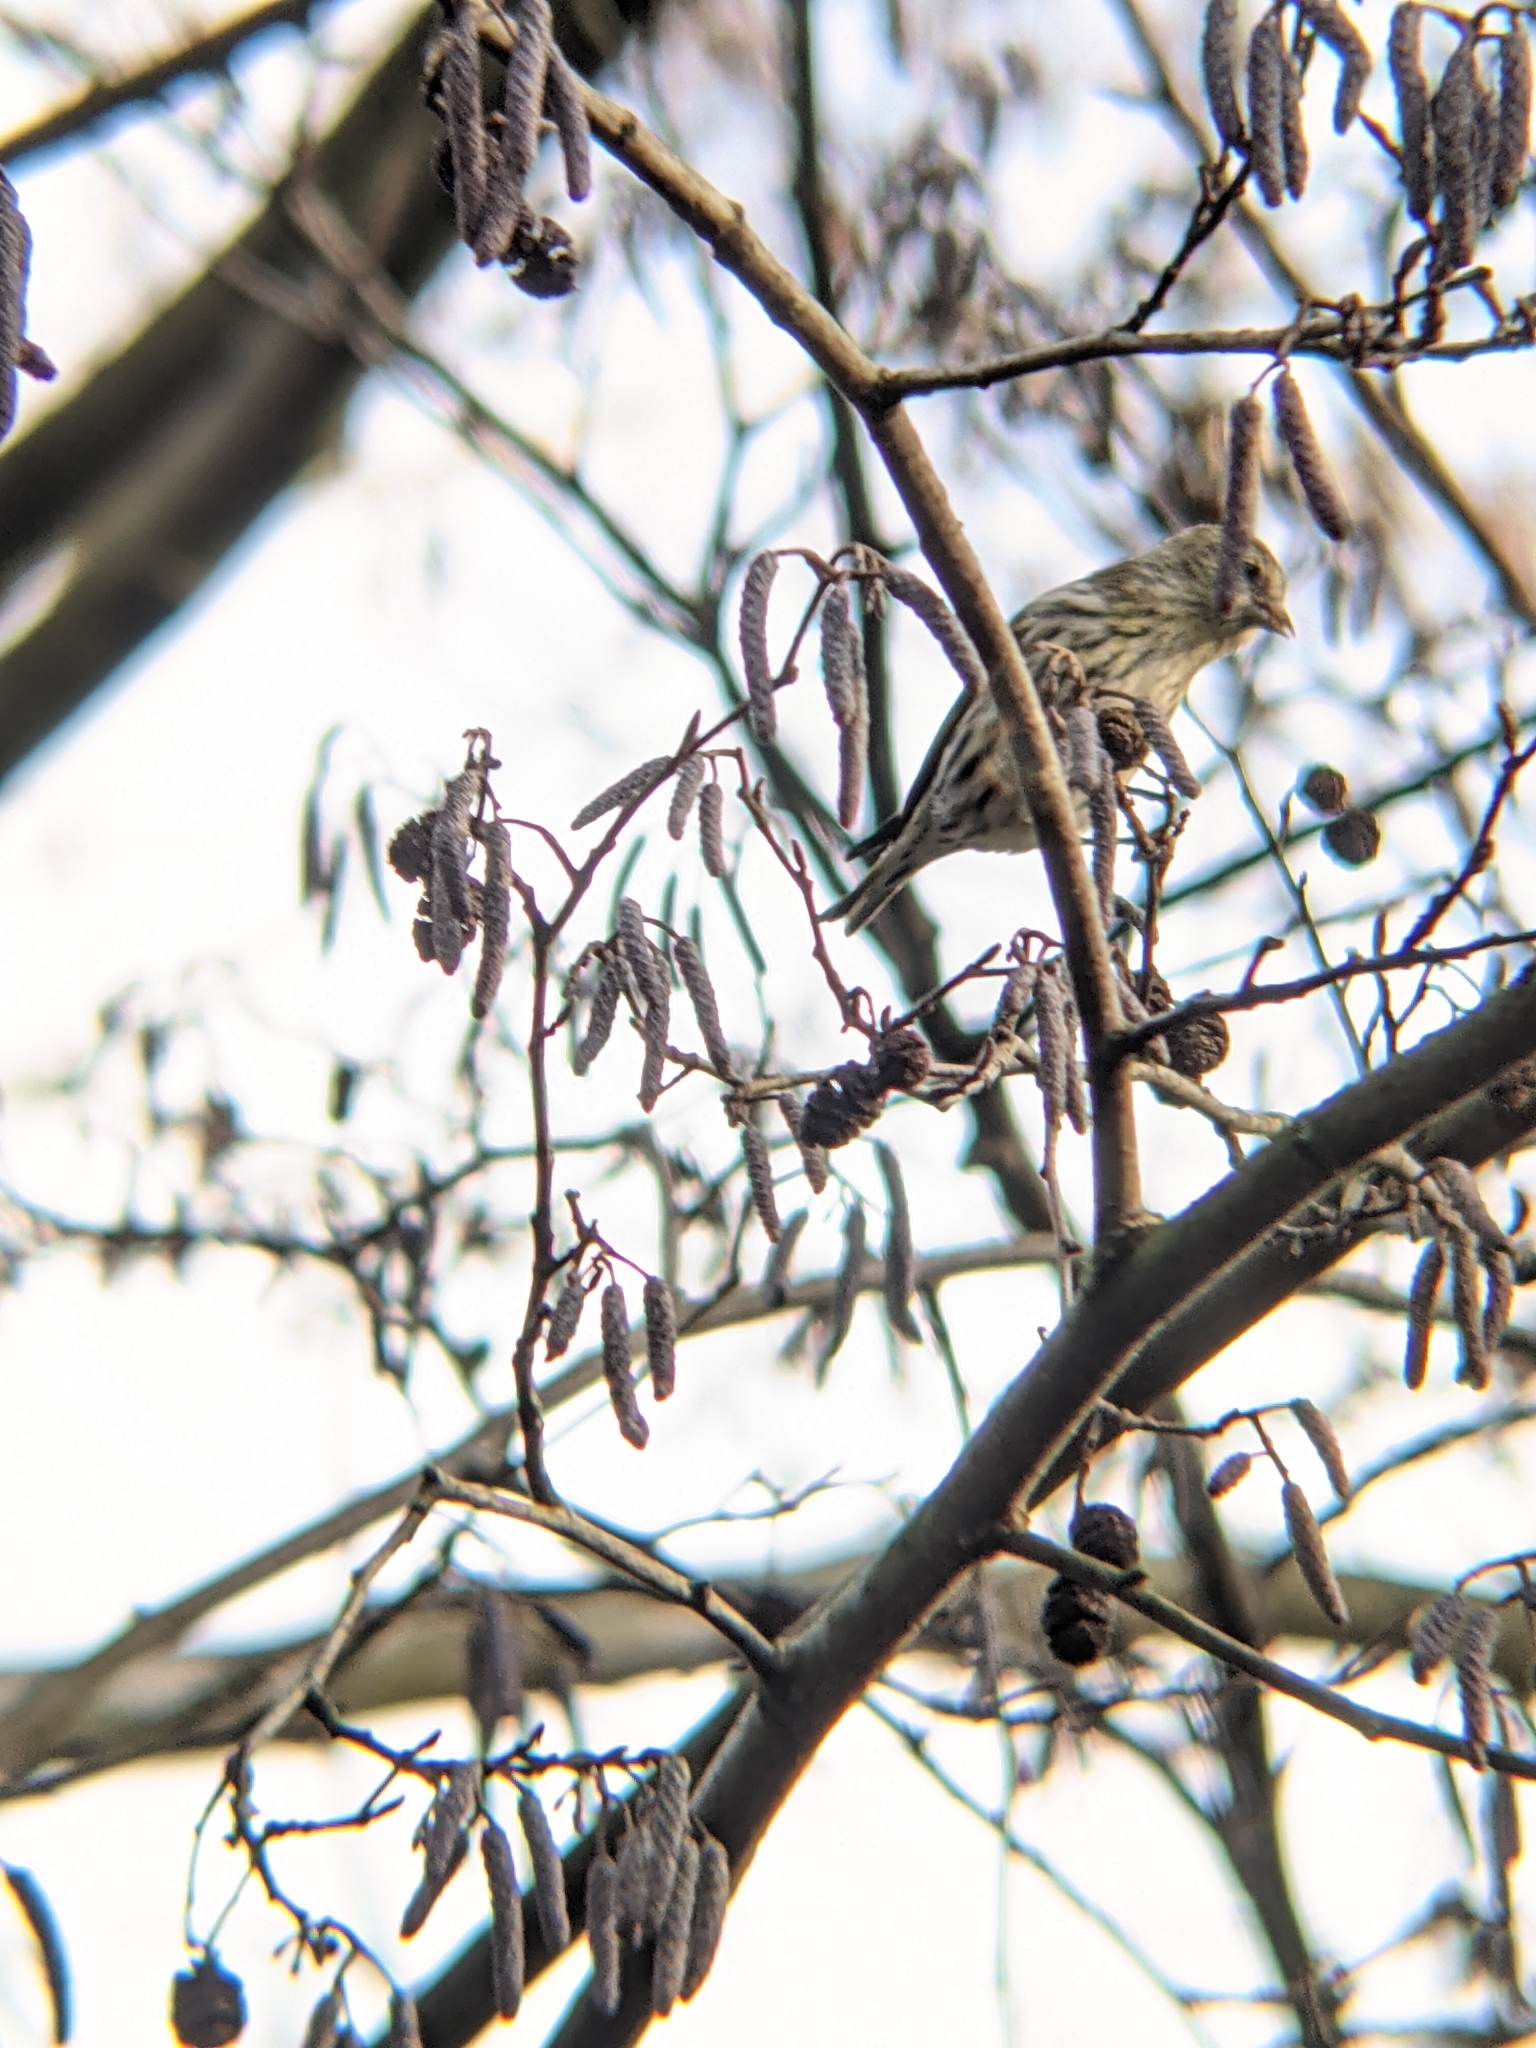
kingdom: Animalia
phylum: Chordata
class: Aves
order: Passeriformes
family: Fringillidae
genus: Spinus
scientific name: Spinus spinus
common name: Eurasian siskin
